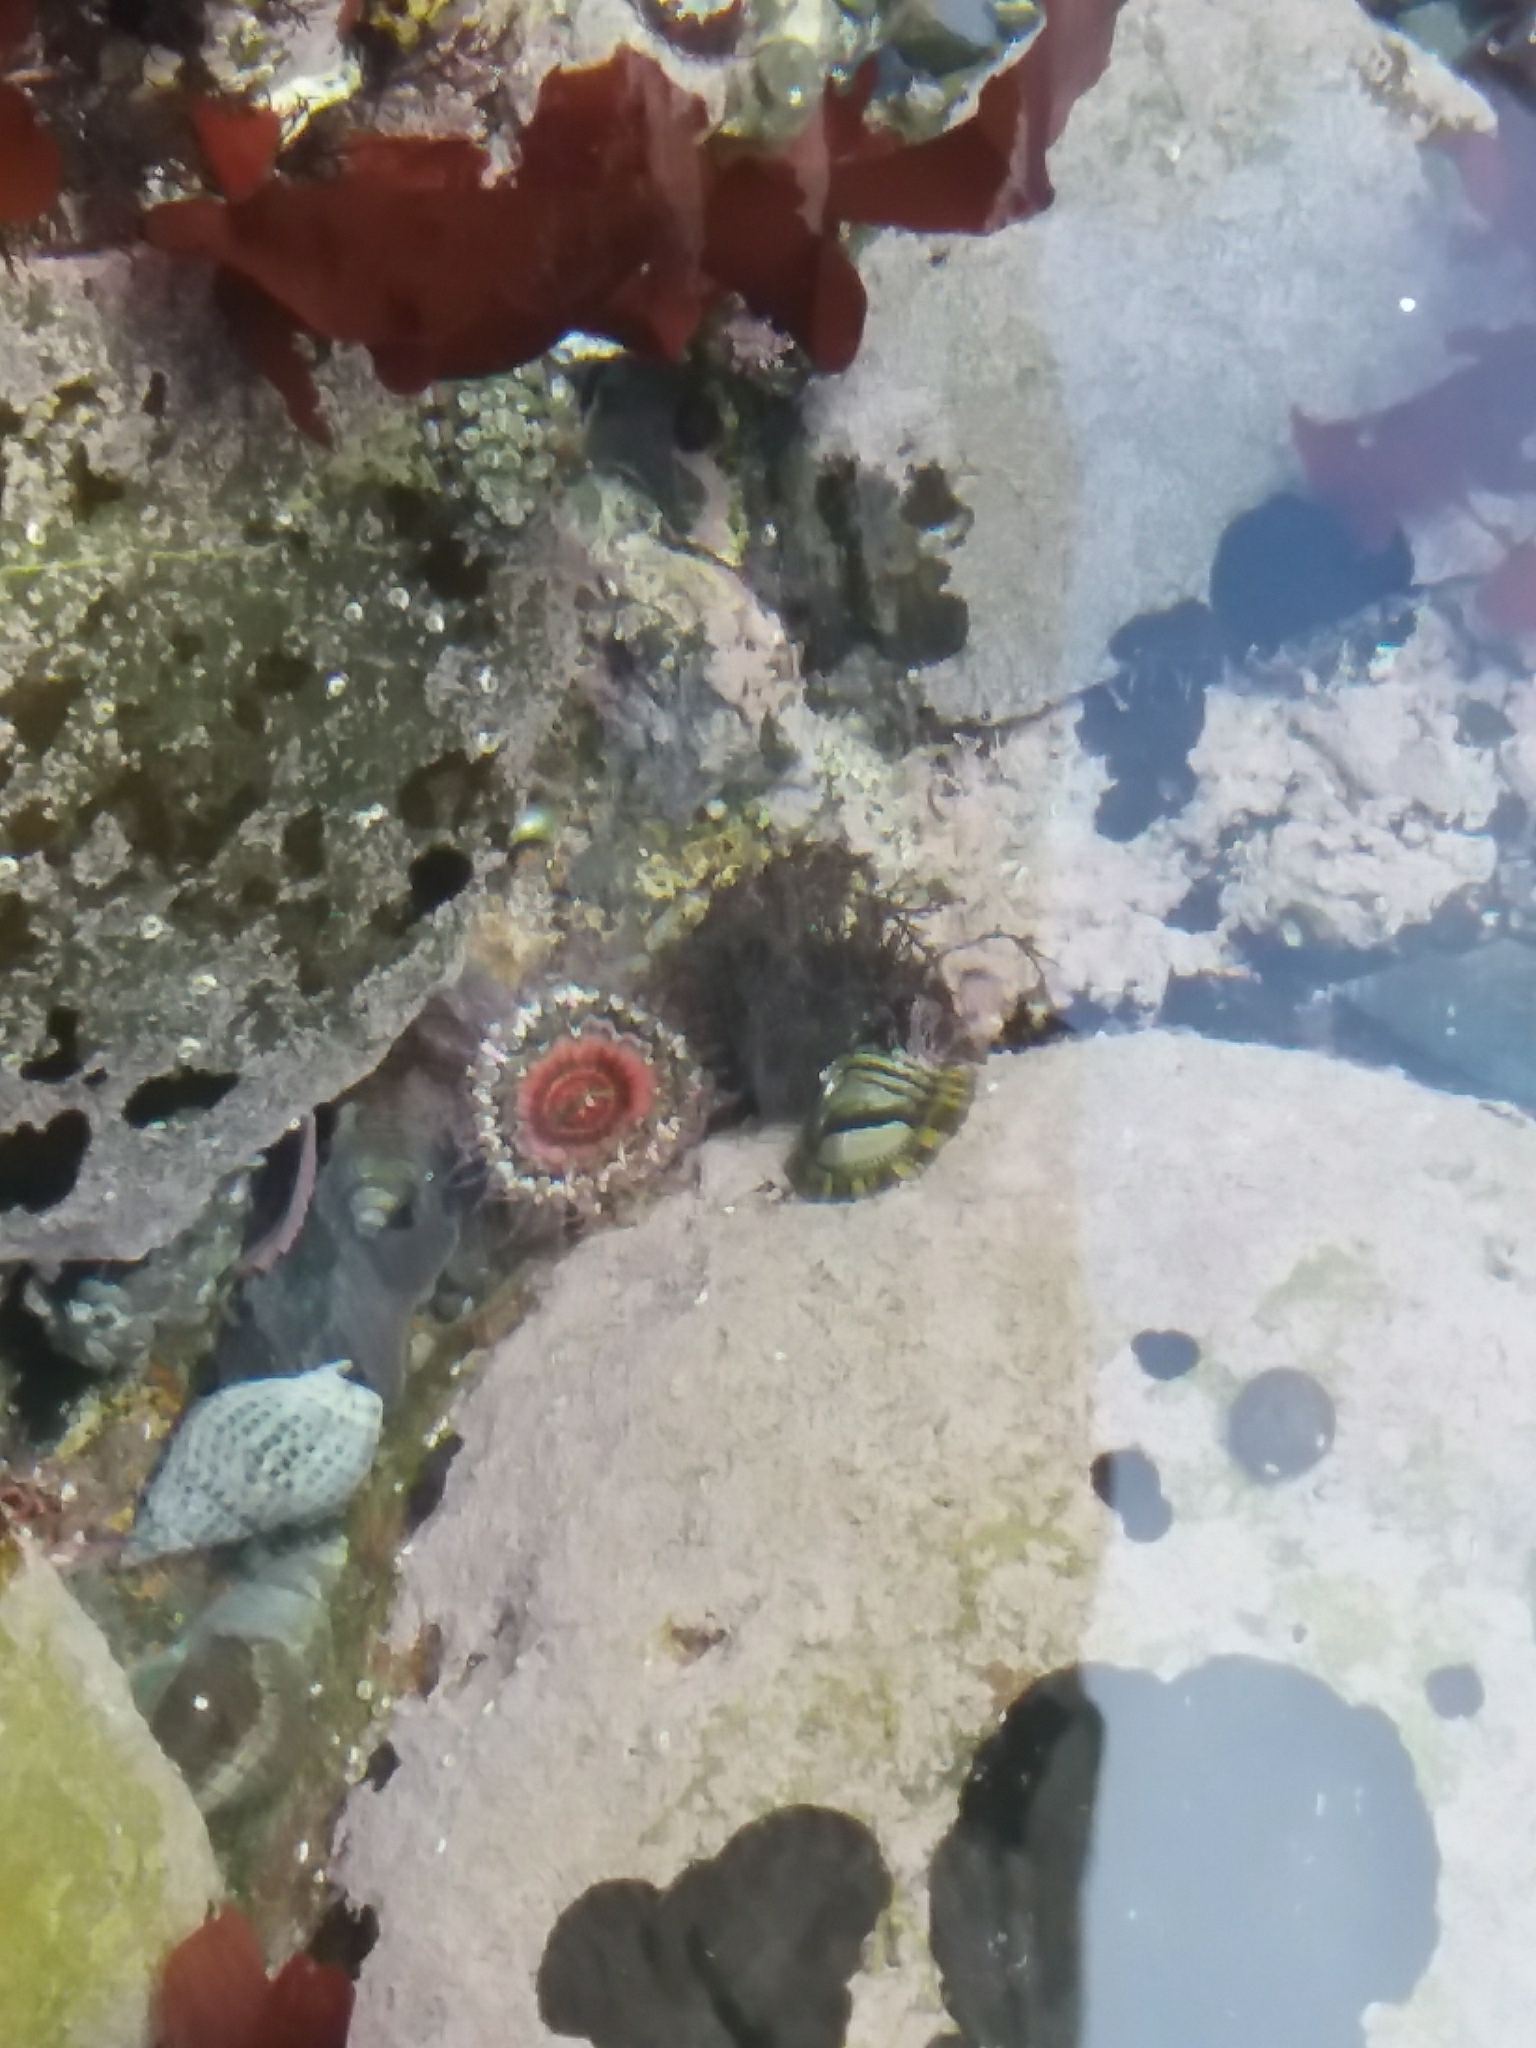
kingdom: Animalia
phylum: Cnidaria
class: Anthozoa
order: Actiniaria
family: Actiniidae
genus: Oulactis
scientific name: Oulactis muscosa
